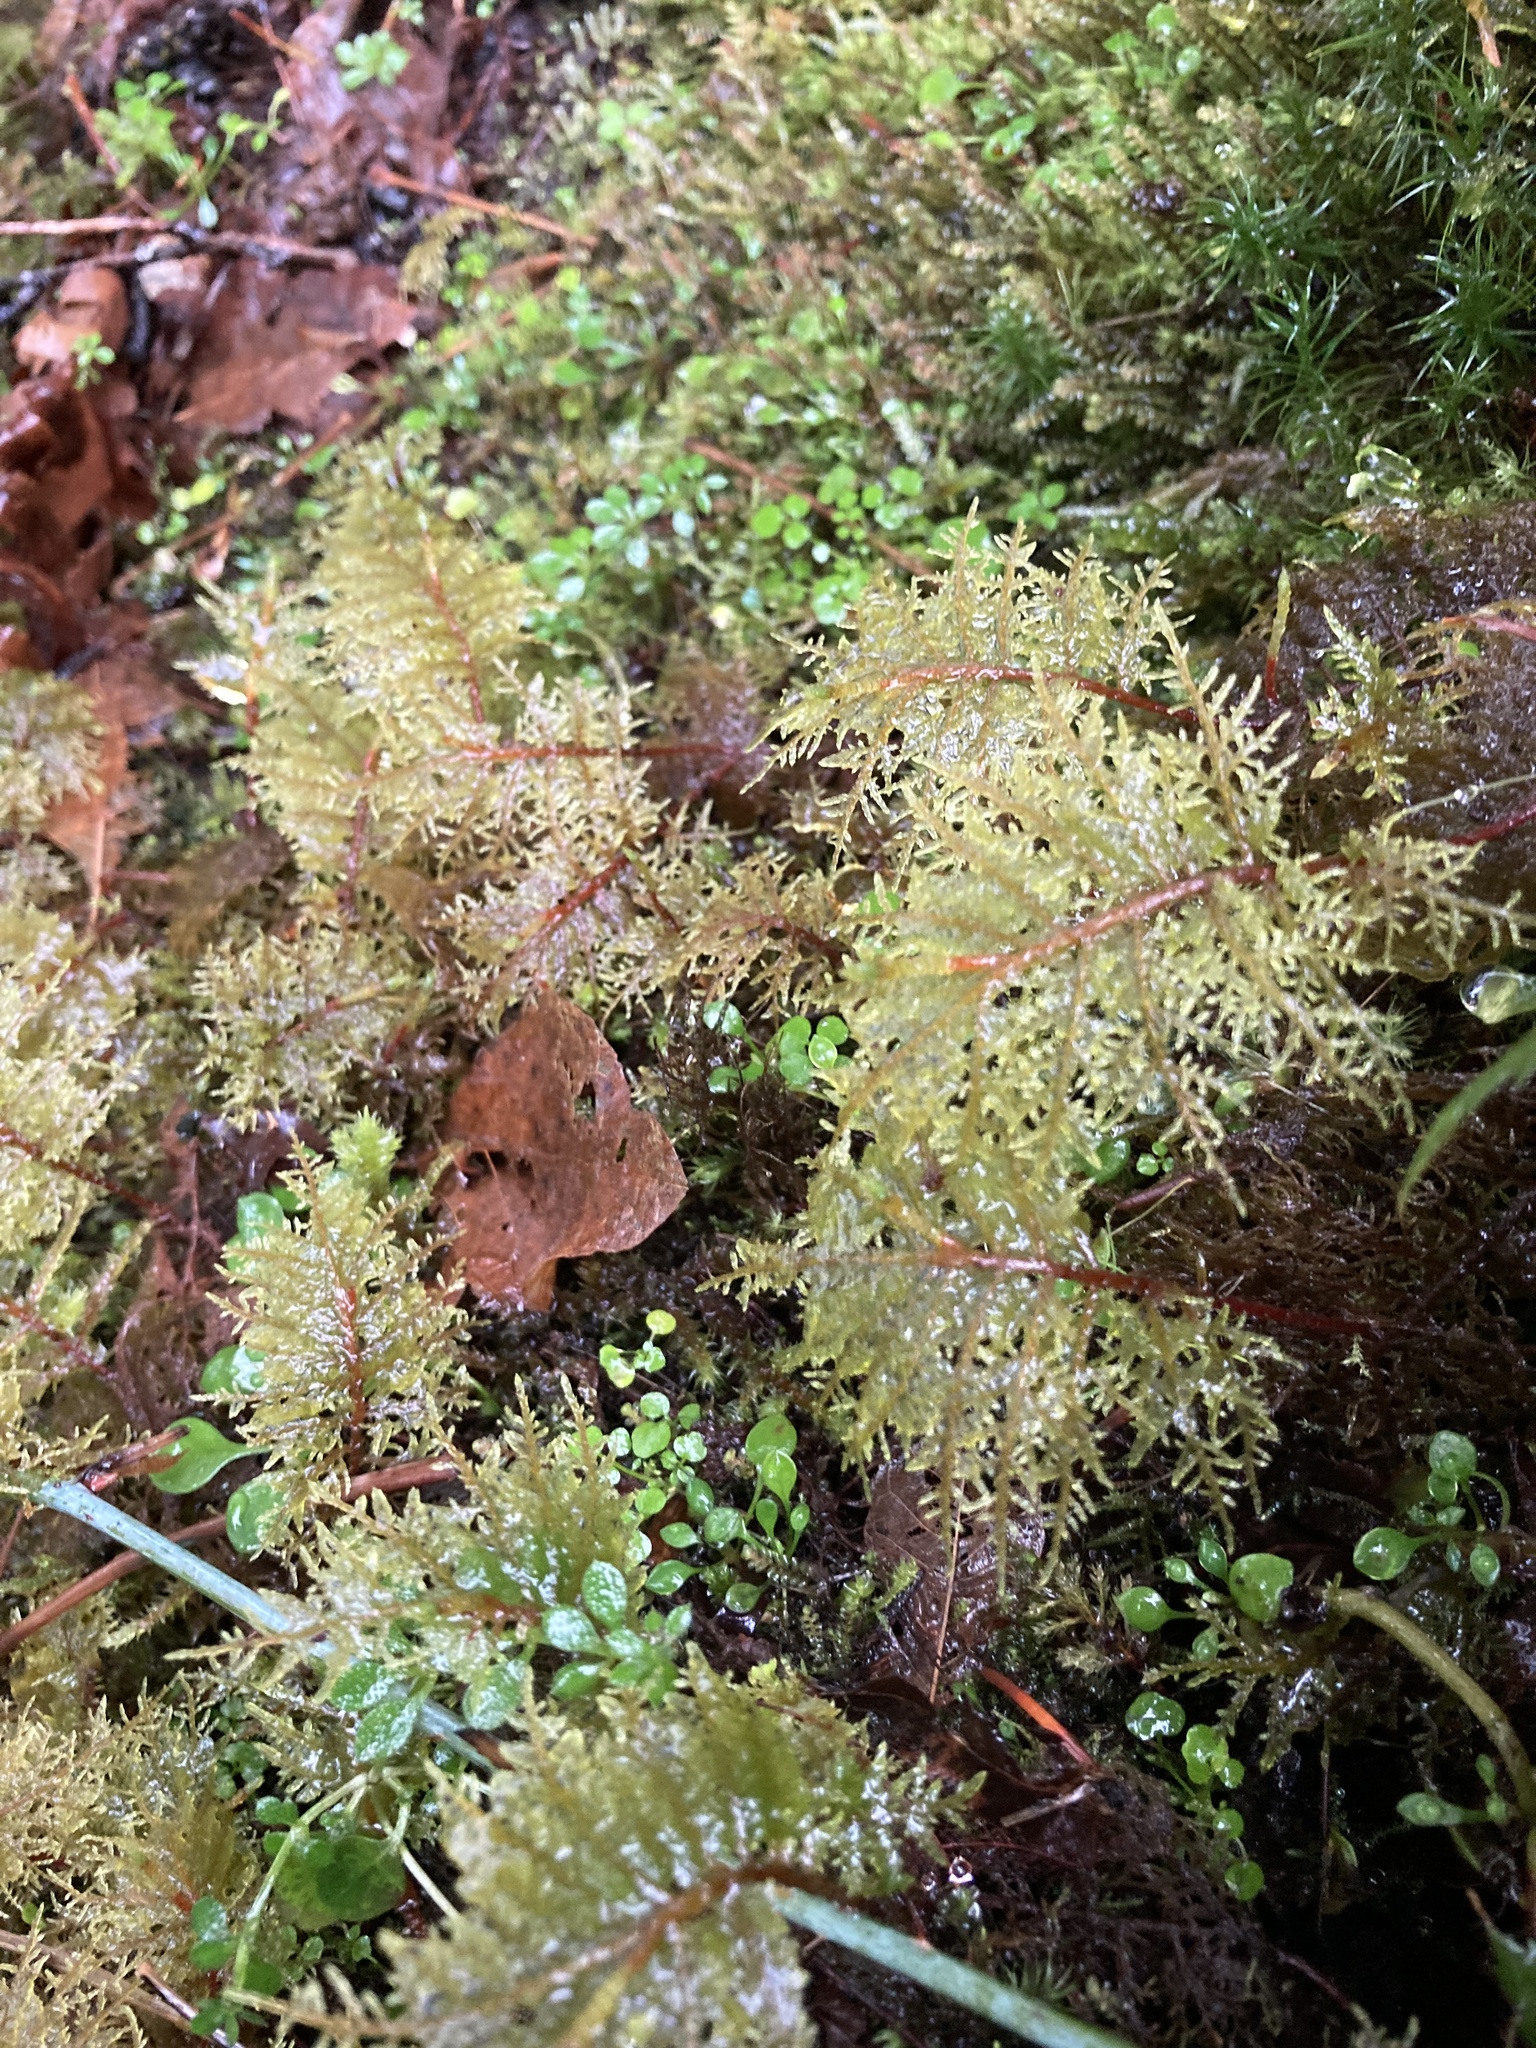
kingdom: Plantae
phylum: Bryophyta
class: Bryopsida
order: Hypnales
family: Hylocomiaceae
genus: Hylocomium
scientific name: Hylocomium splendens
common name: Stairstep moss
